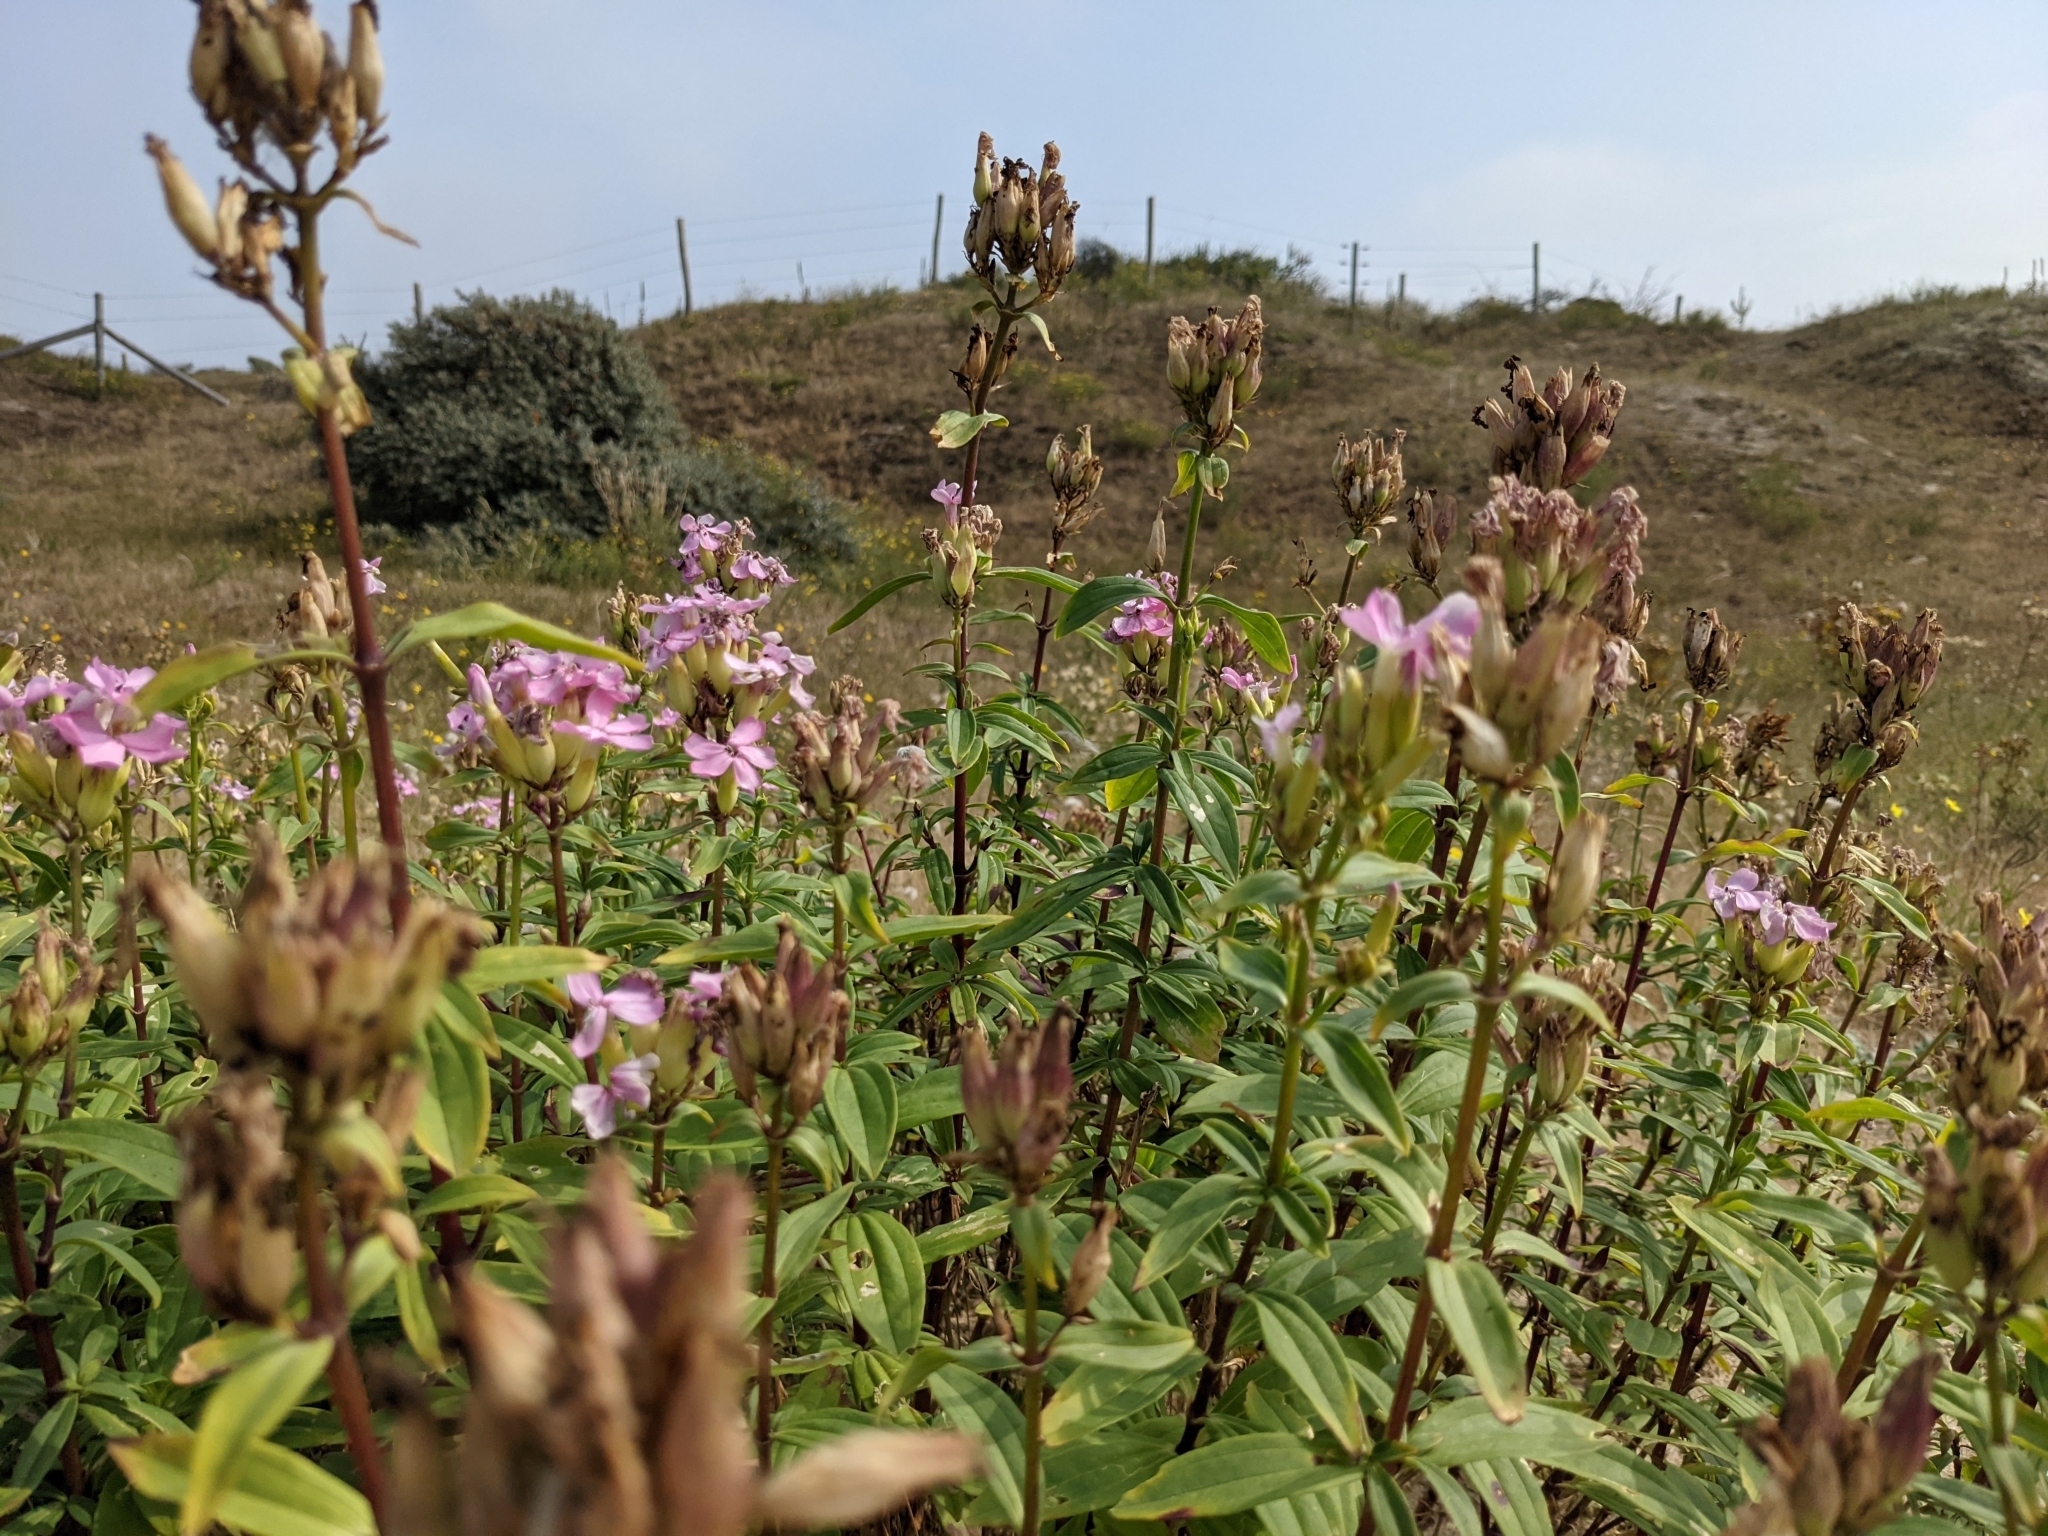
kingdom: Plantae
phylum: Tracheophyta
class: Magnoliopsida
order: Caryophyllales
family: Caryophyllaceae
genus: Saponaria
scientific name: Saponaria officinalis
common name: Soapwort
